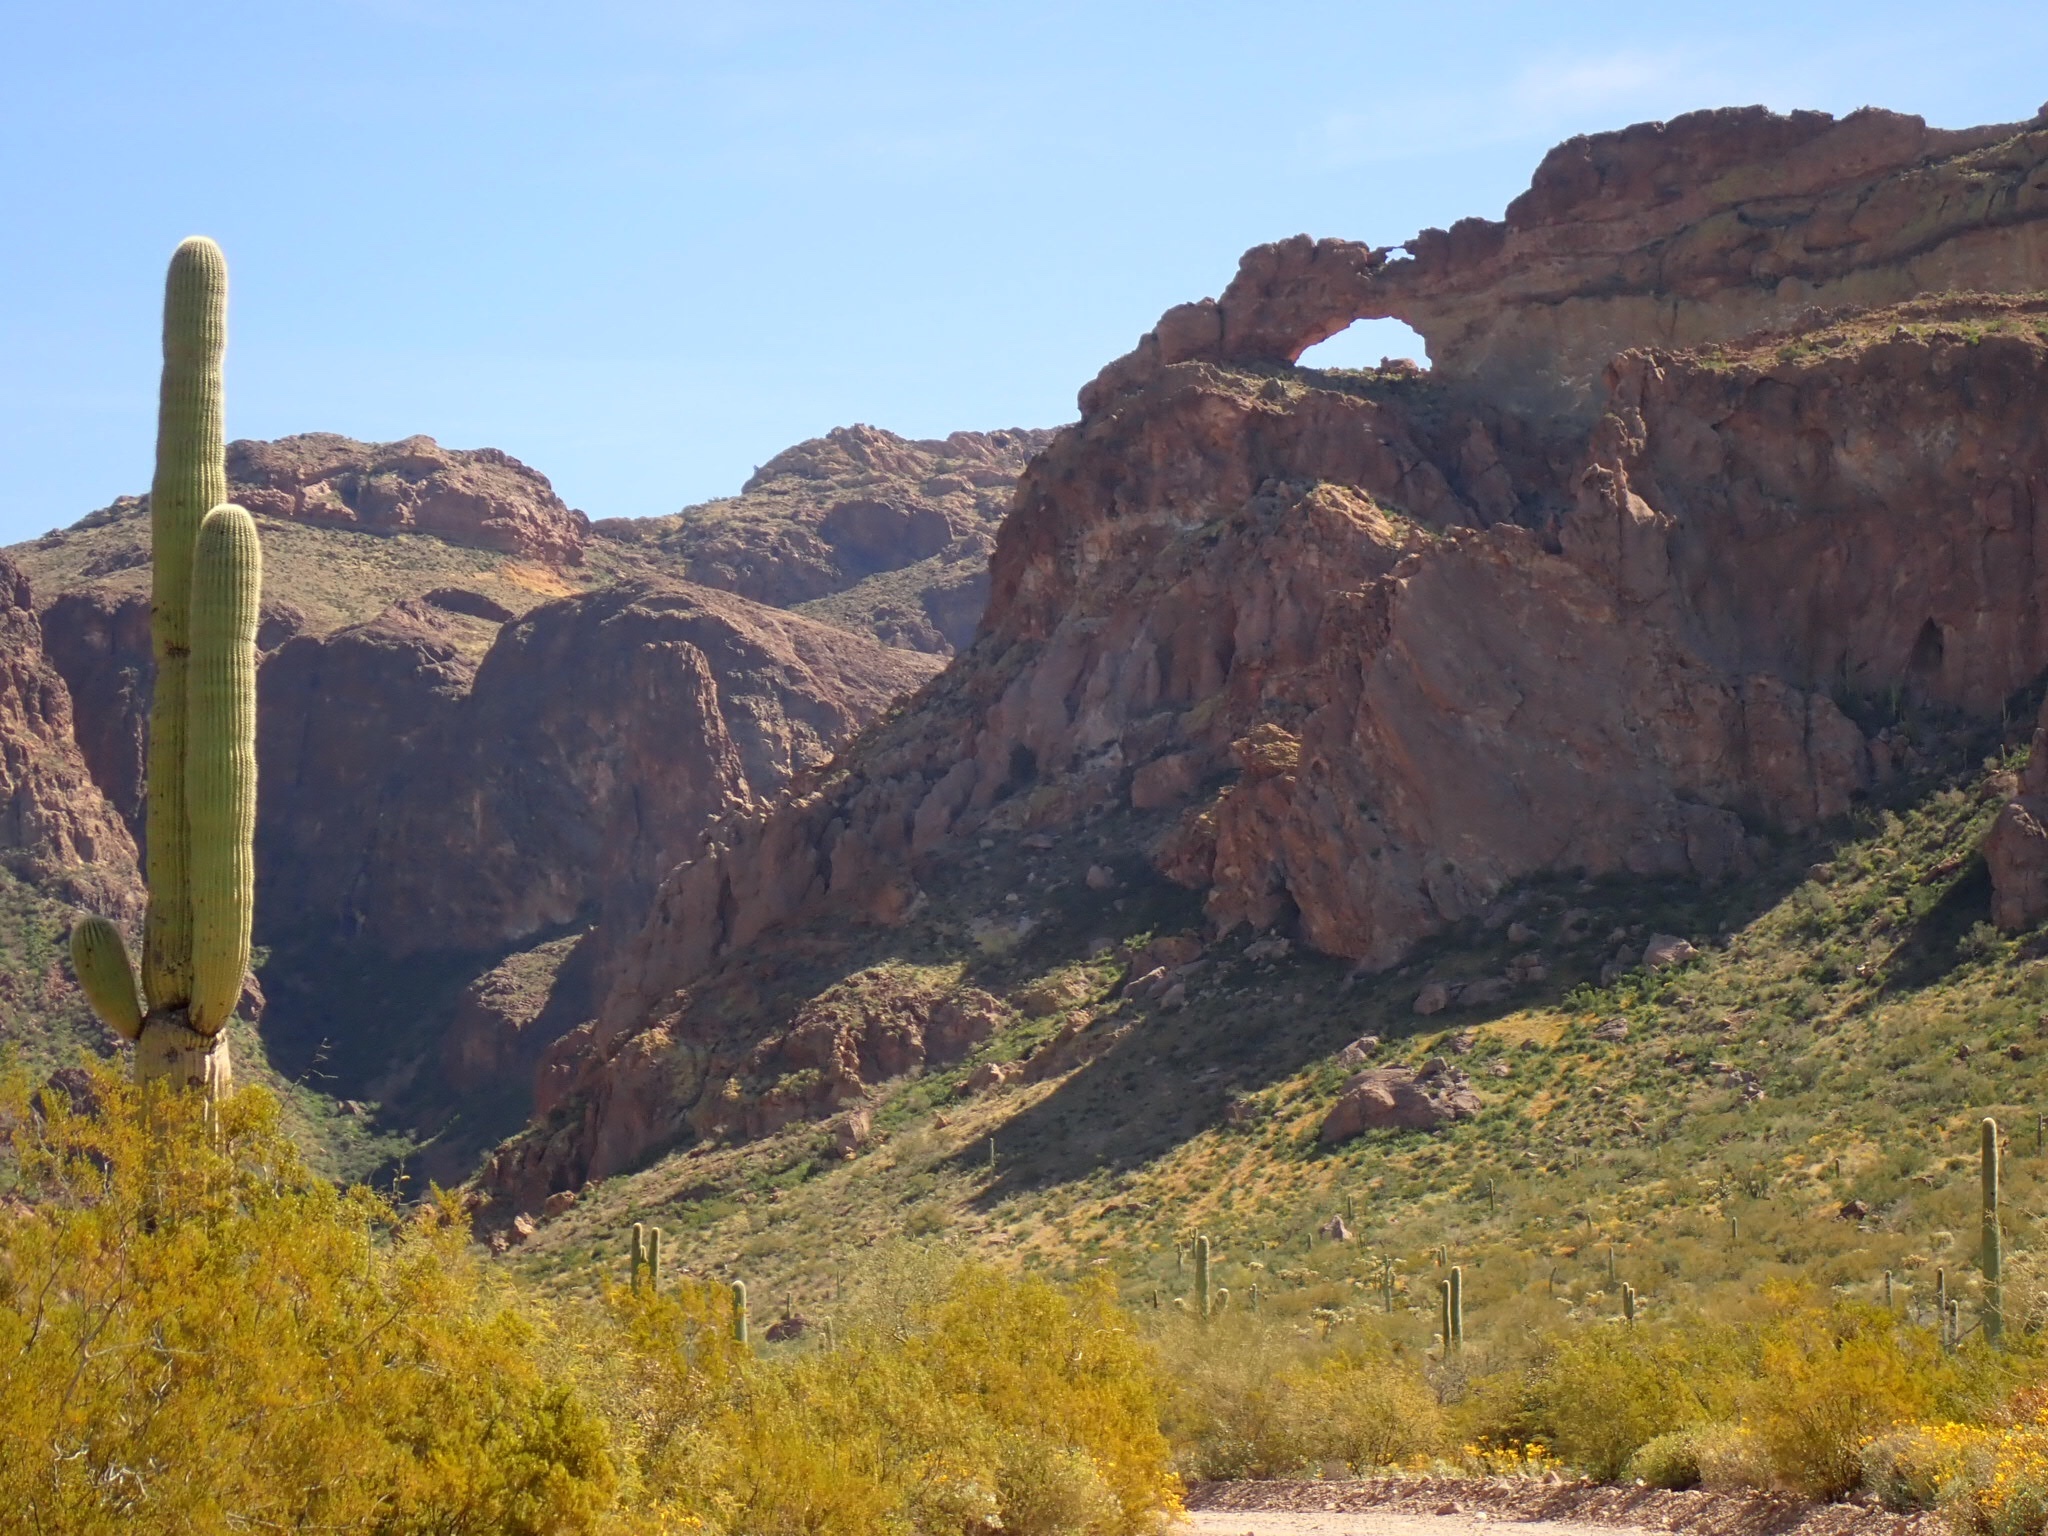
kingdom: Plantae
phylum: Tracheophyta
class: Magnoliopsida
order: Caryophyllales
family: Cactaceae
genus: Carnegiea
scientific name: Carnegiea gigantea
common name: Saguaro
